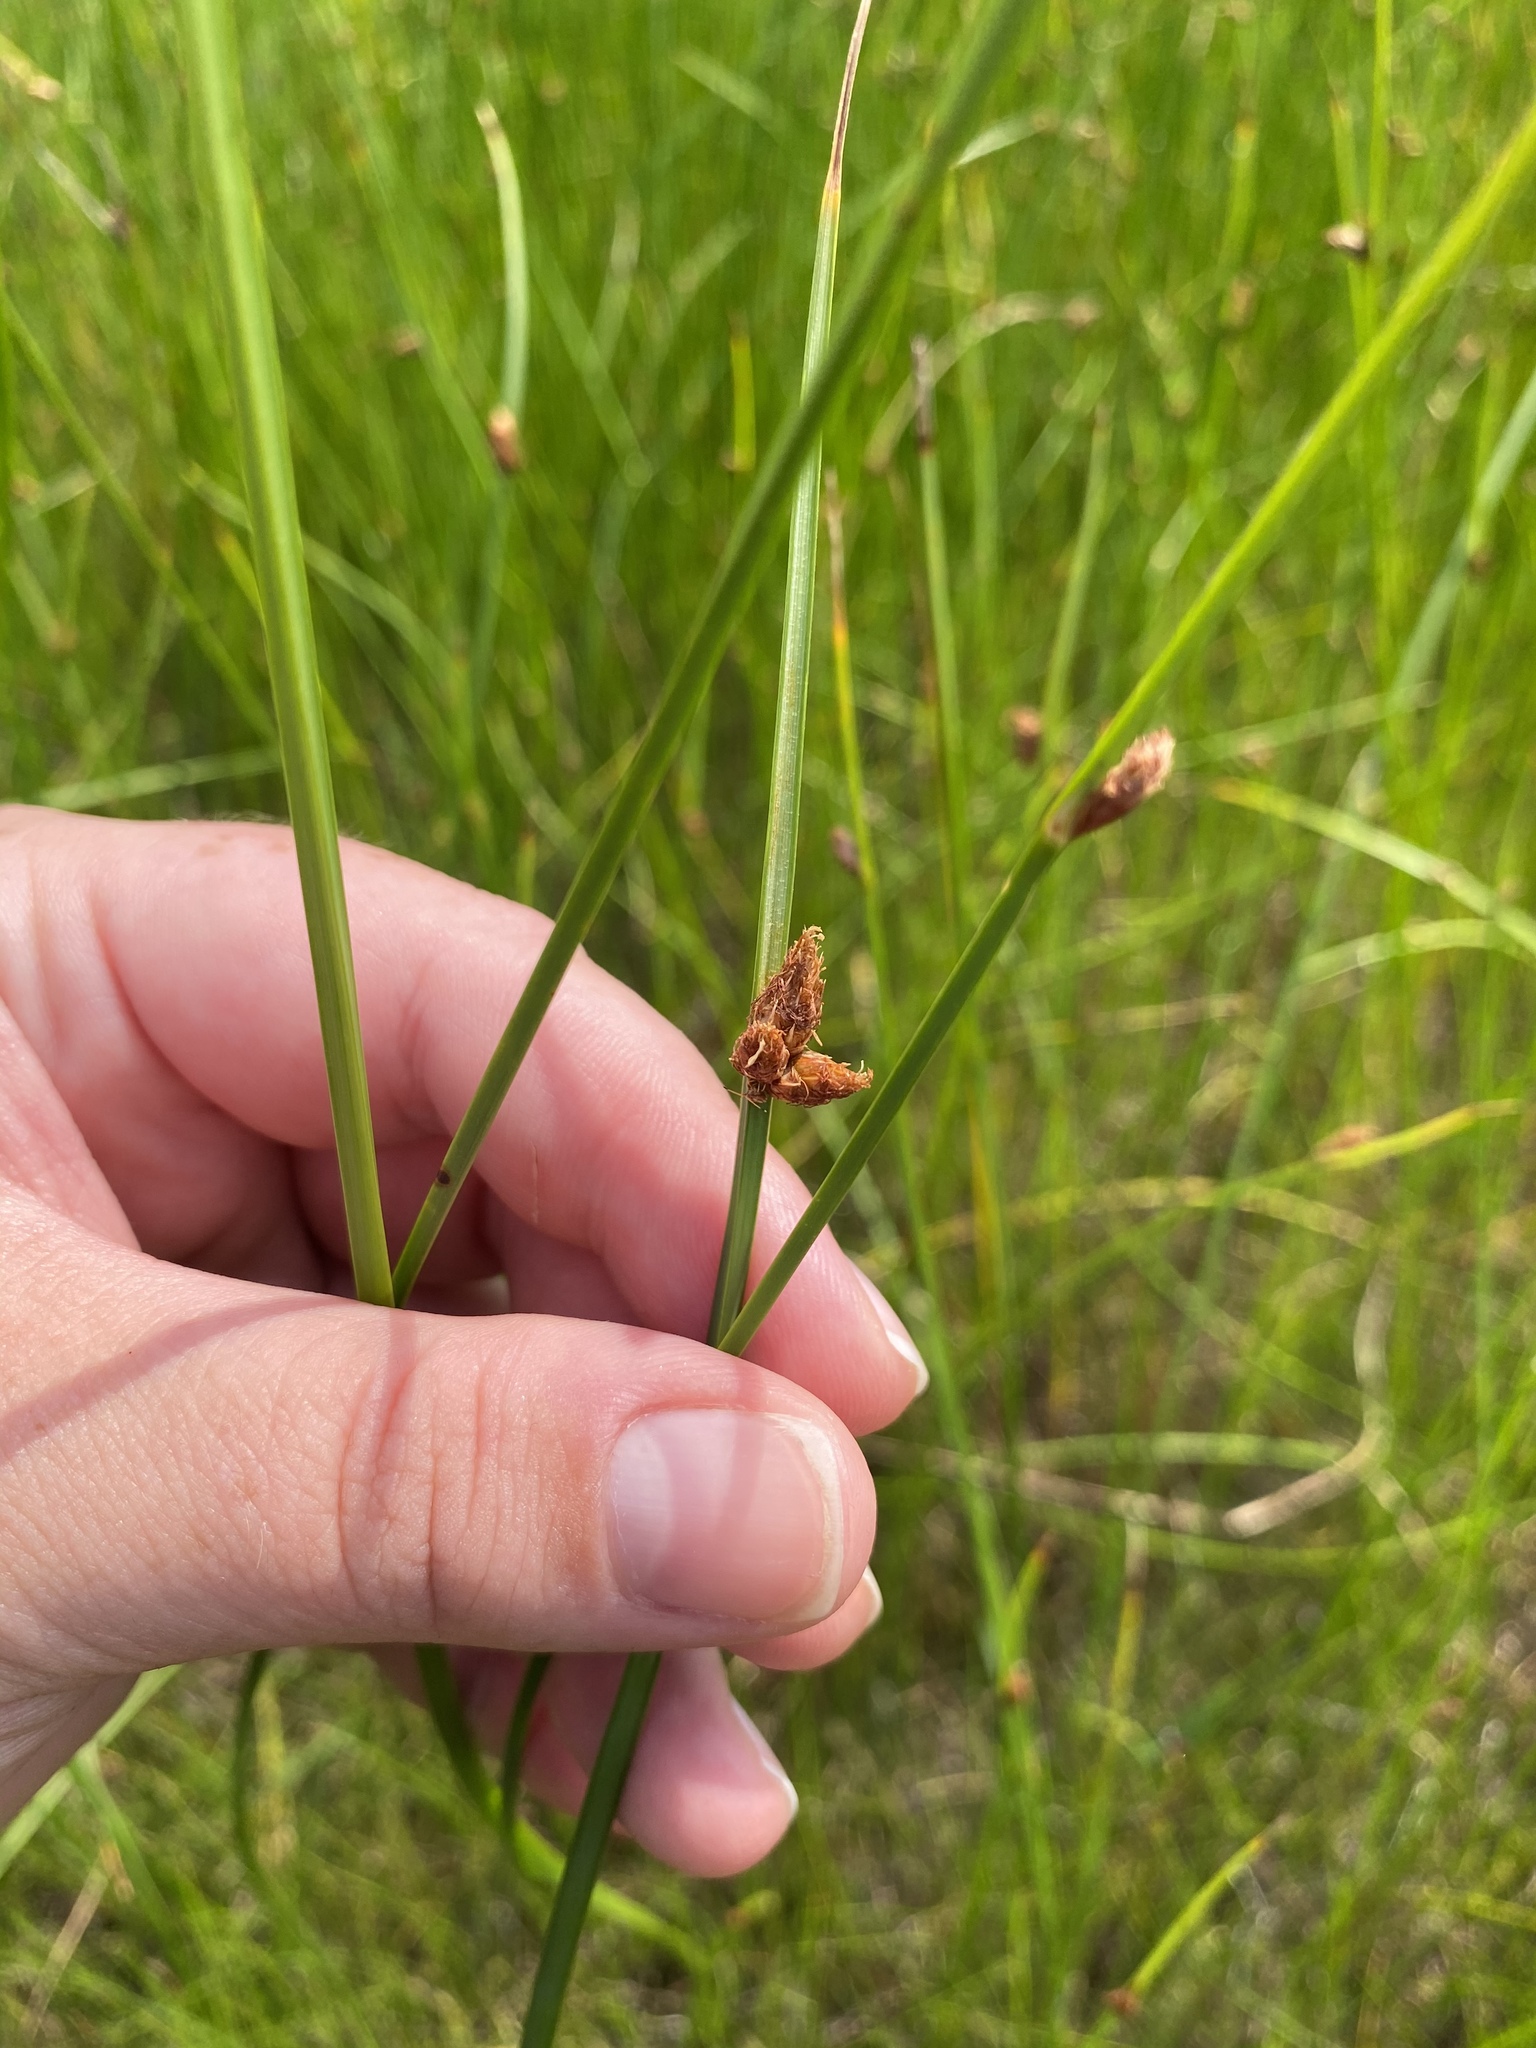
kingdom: Plantae
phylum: Tracheophyta
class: Liliopsida
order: Poales
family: Cyperaceae
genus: Schoenoplectus
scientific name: Schoenoplectus americanus
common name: American three-square bulrush
